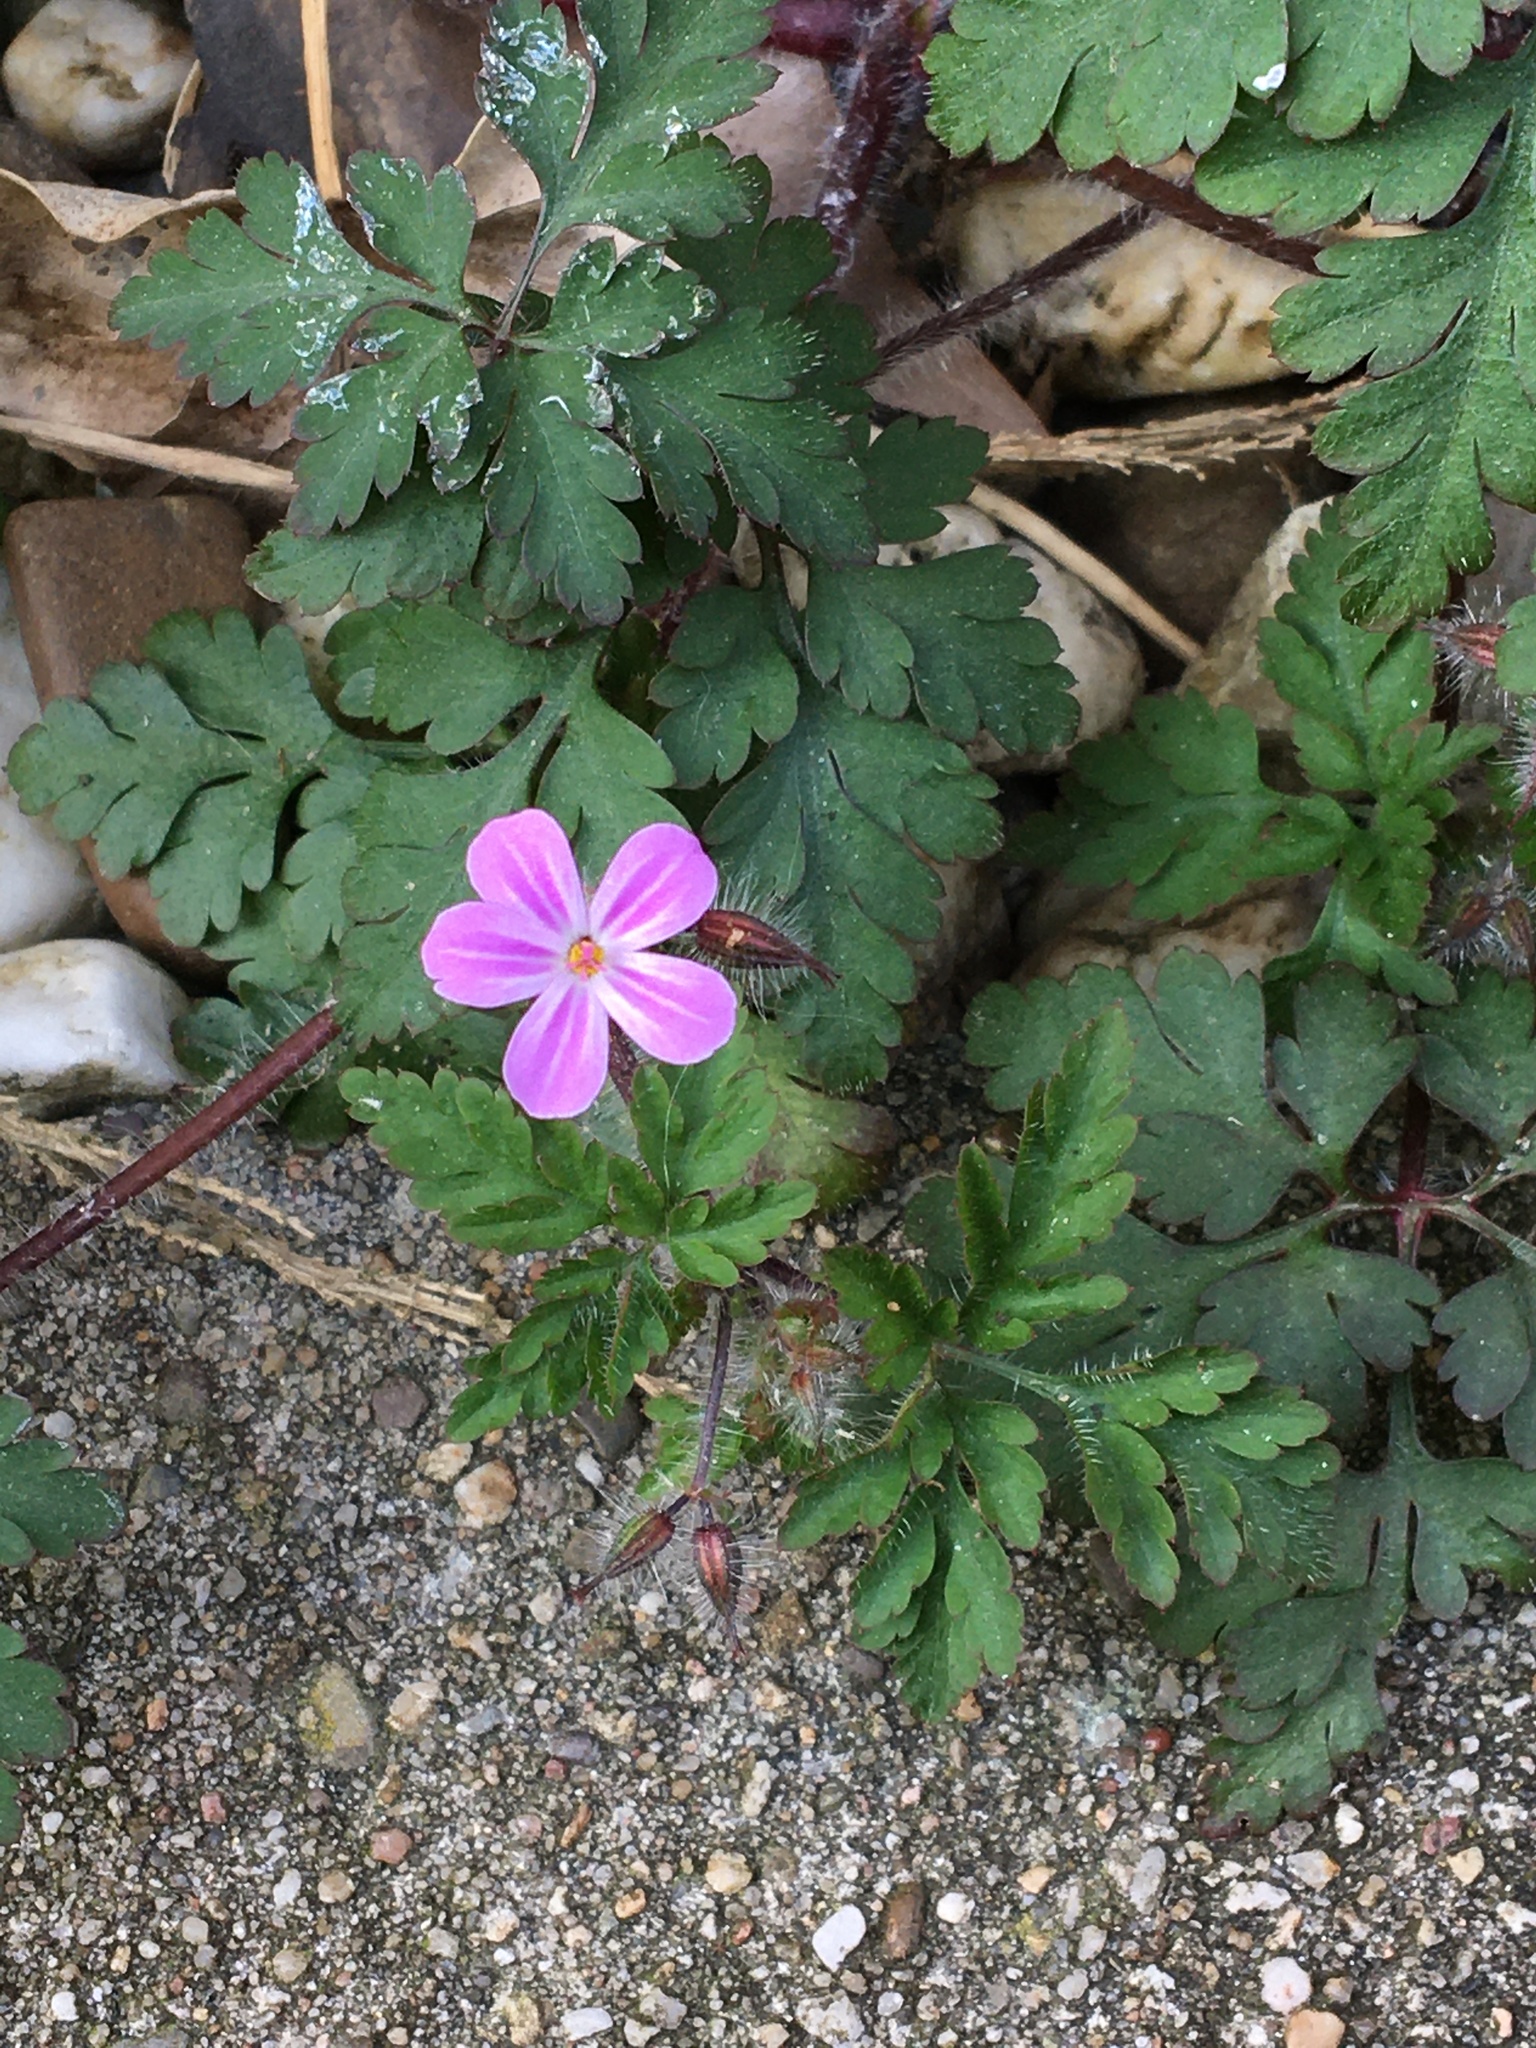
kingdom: Plantae
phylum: Tracheophyta
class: Magnoliopsida
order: Geraniales
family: Geraniaceae
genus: Geranium
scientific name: Geranium robertianum
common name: Herb-robert
